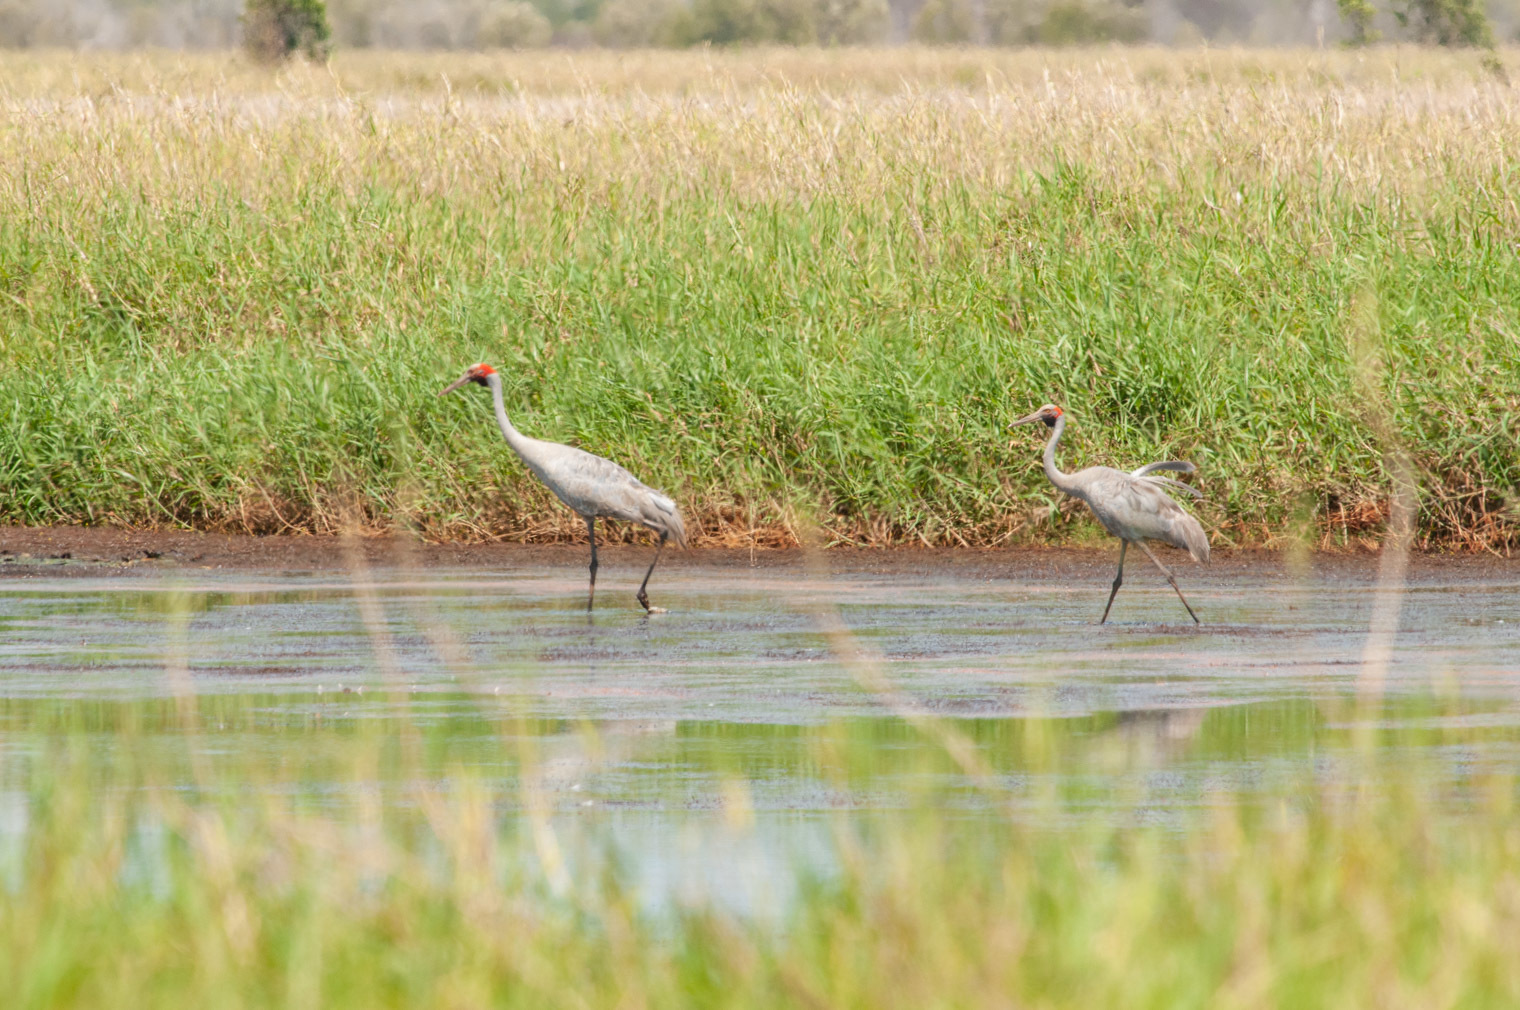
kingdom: Animalia
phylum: Chordata
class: Aves
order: Gruiformes
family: Gruidae
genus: Grus
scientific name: Grus rubicunda
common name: Brolga
